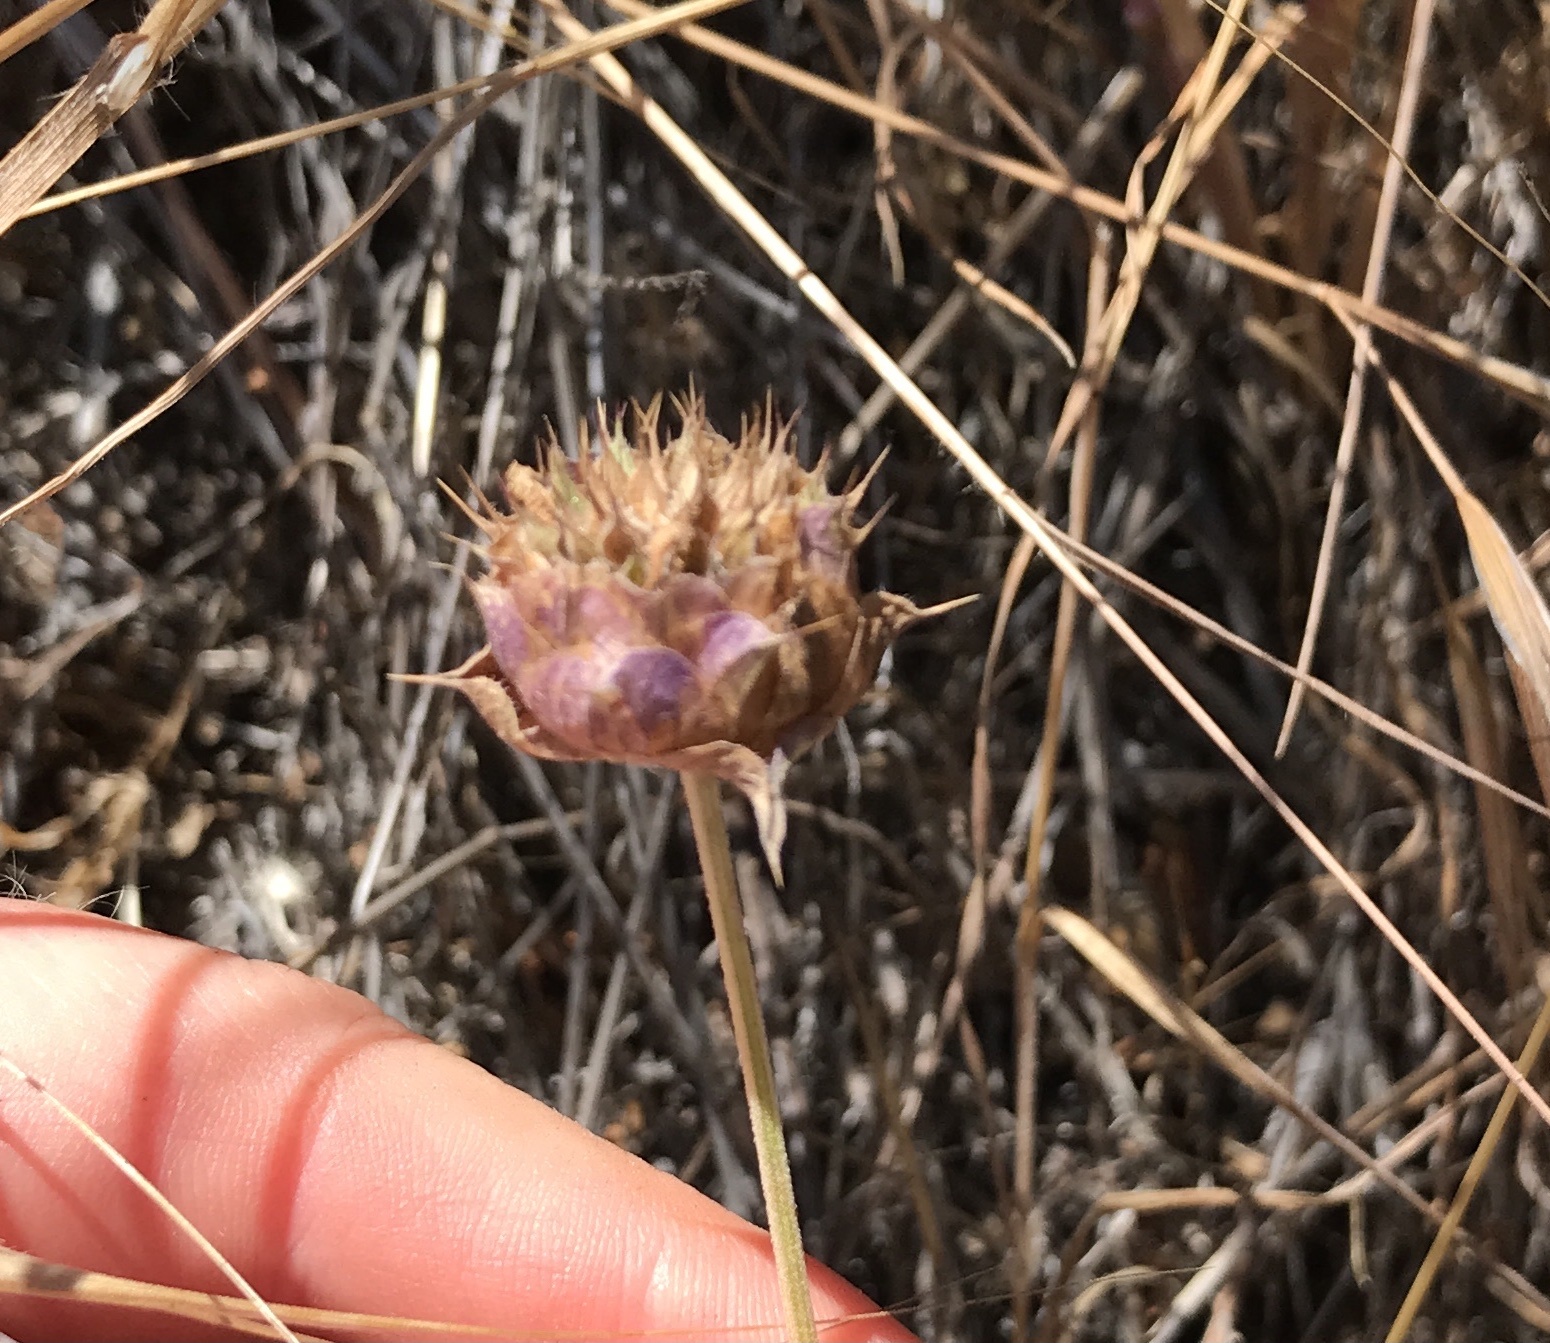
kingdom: Plantae
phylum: Tracheophyta
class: Magnoliopsida
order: Lamiales
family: Lamiaceae
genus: Salvia
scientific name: Salvia columbariae
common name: Chia
